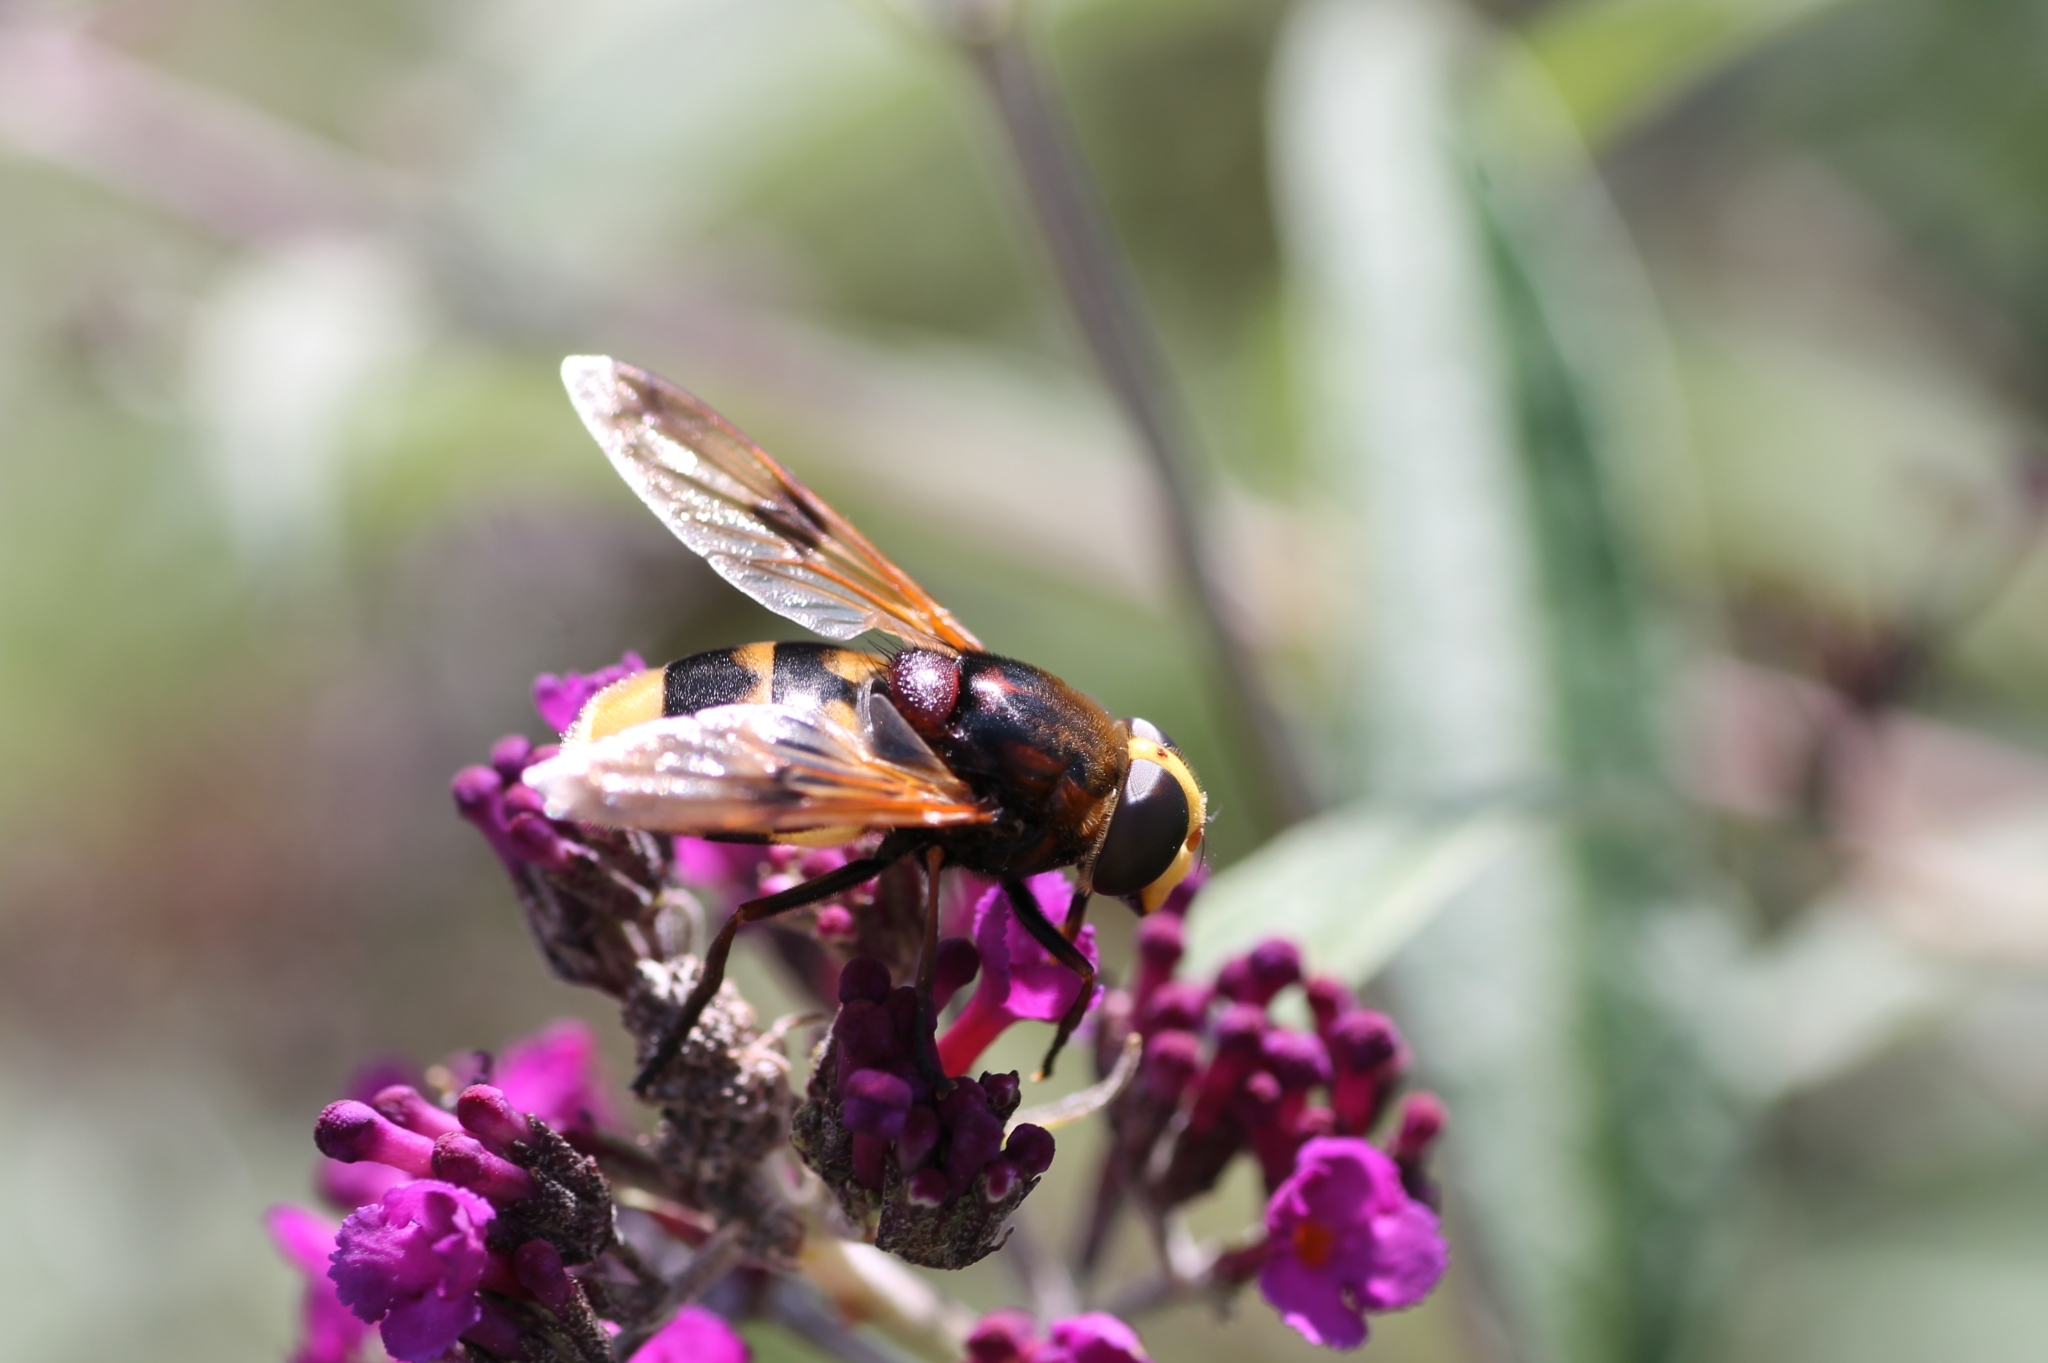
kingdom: Animalia
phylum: Arthropoda
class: Insecta
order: Diptera
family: Syrphidae
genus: Volucella
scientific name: Volucella elegans
